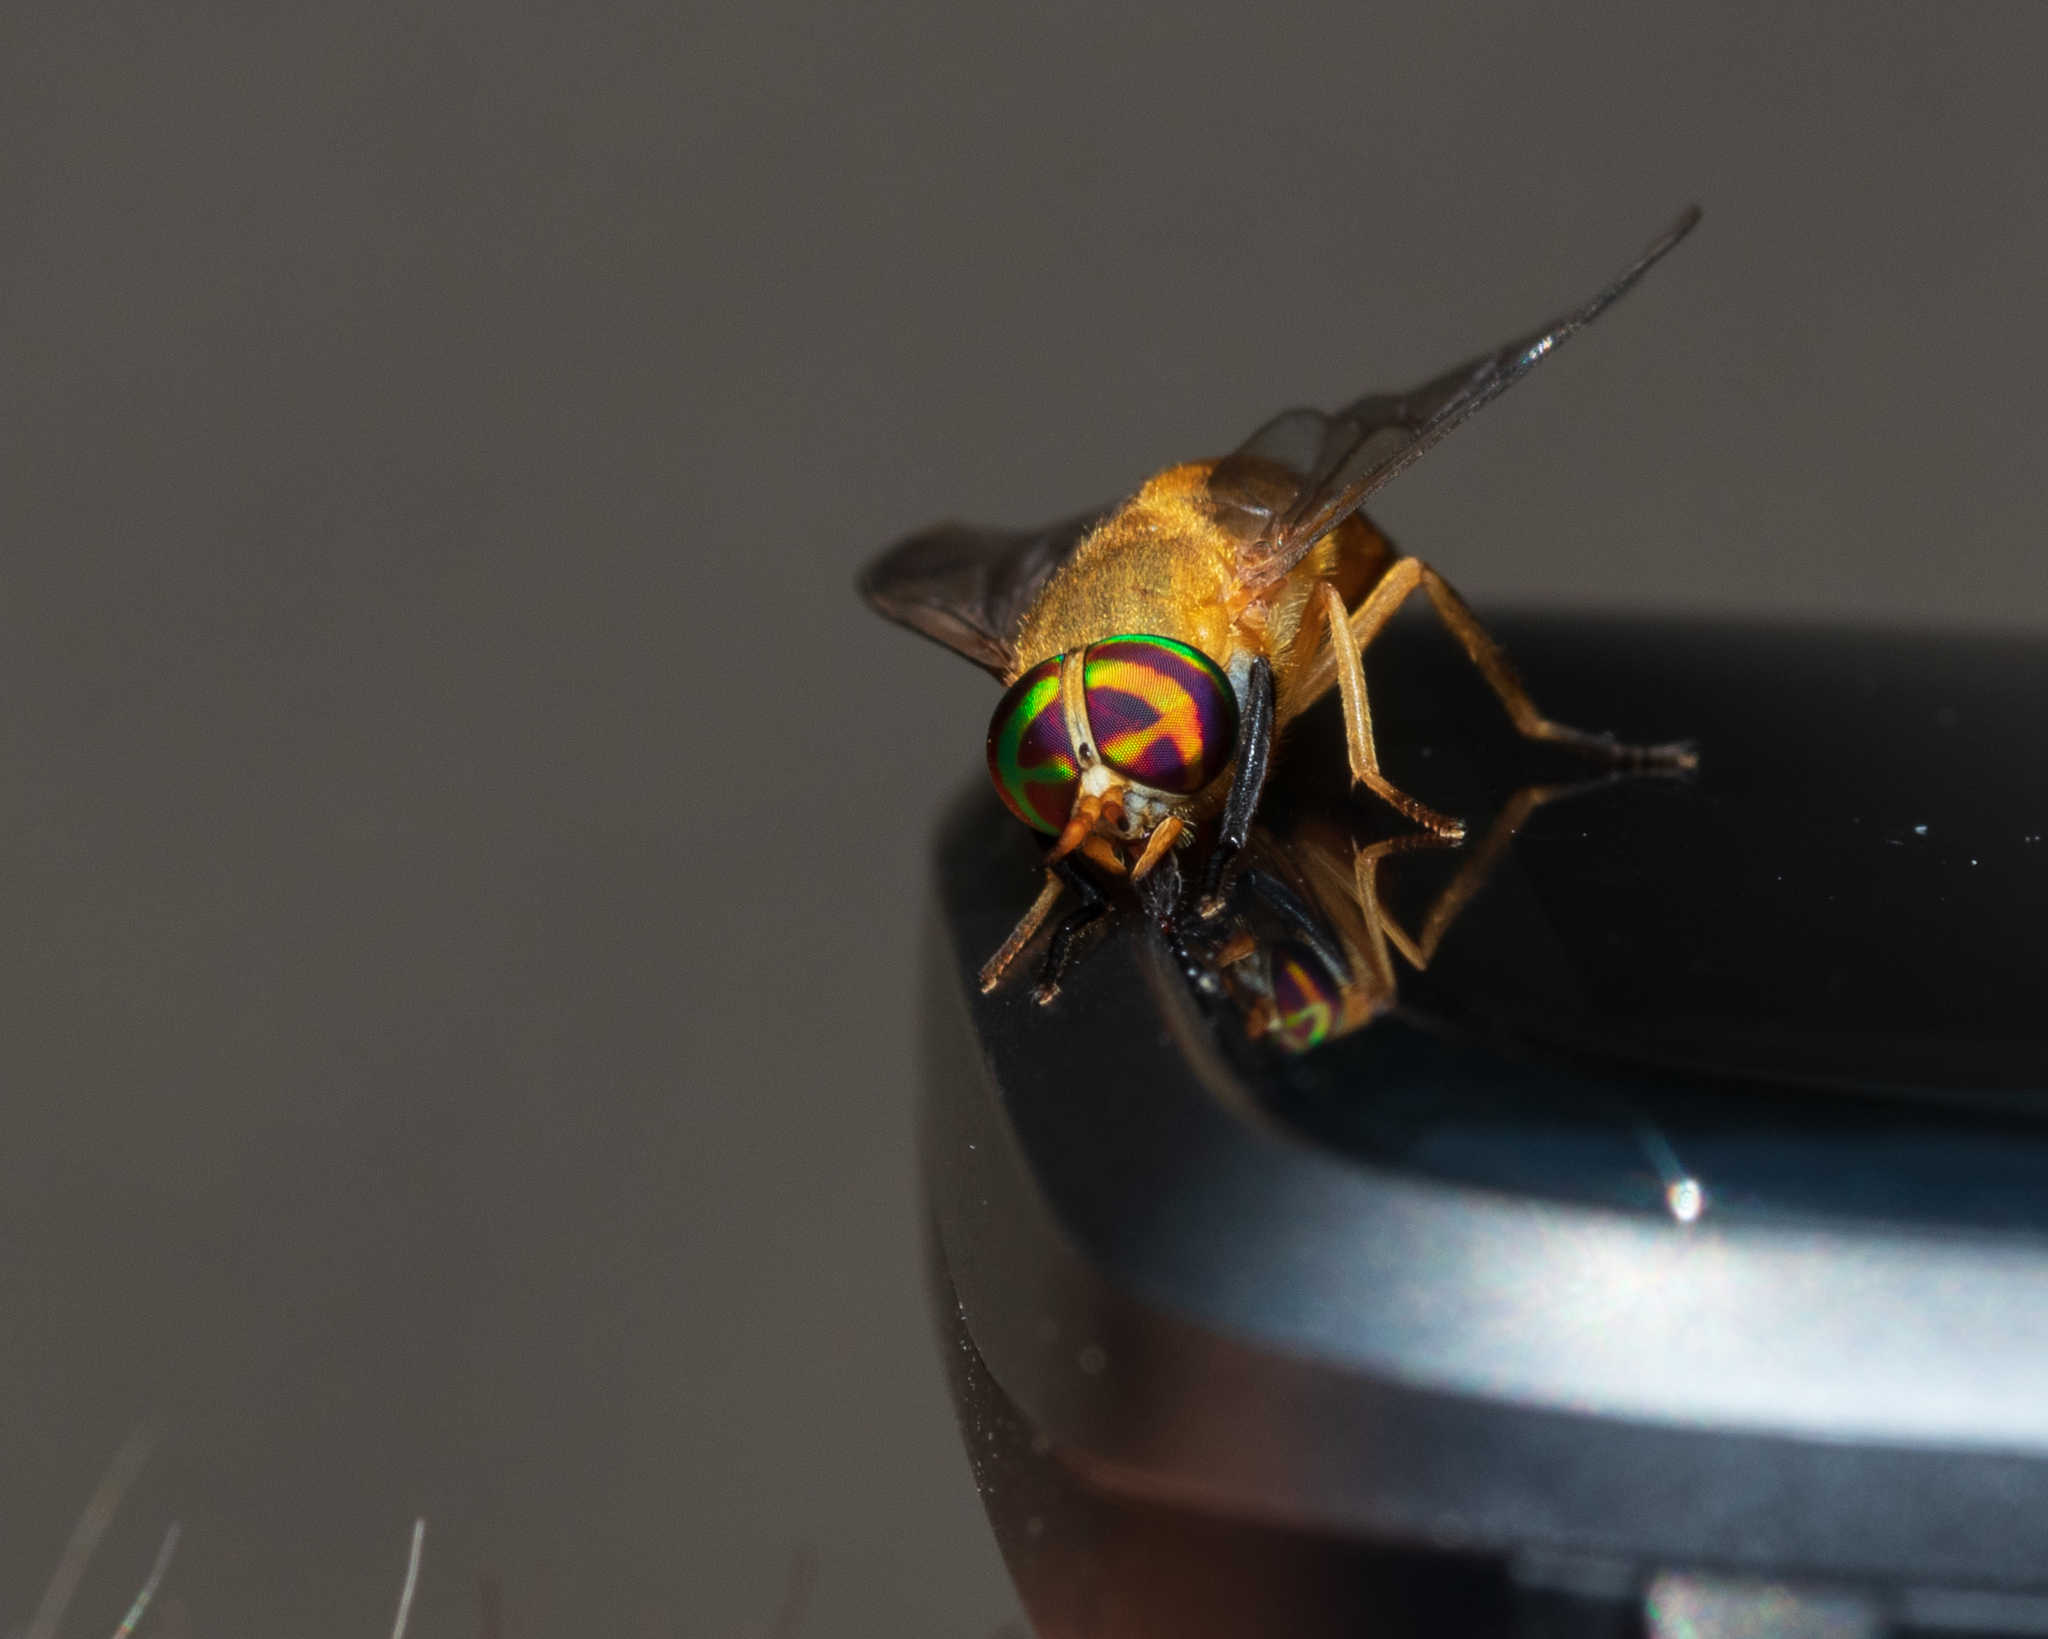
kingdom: Animalia
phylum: Arthropoda
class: Insecta
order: Diptera
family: Tabanidae
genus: Diachlorus
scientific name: Diachlorus ferrugatus
